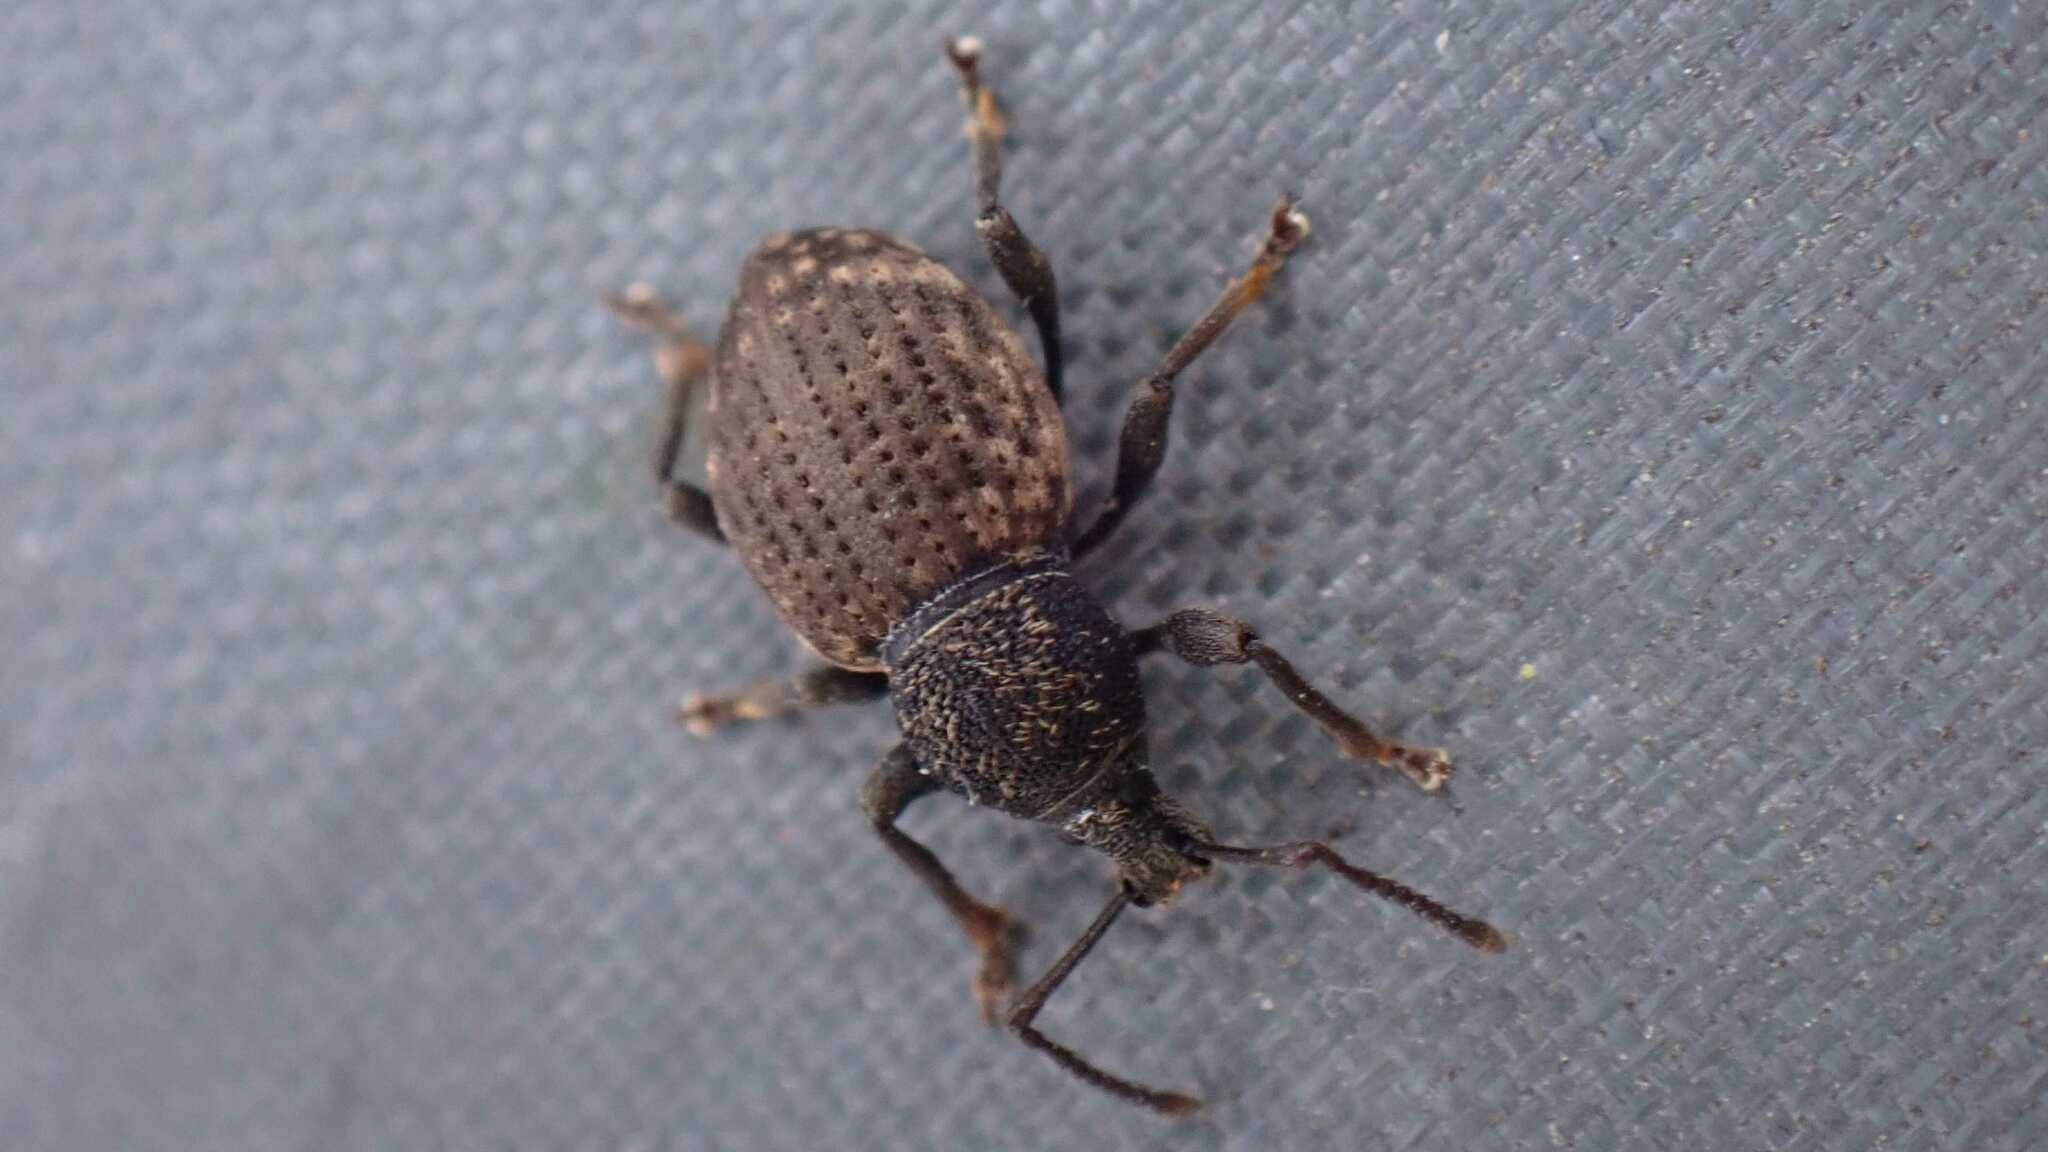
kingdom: Animalia
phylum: Arthropoda
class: Insecta
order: Coleoptera
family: Curculionidae
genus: Otiorhynchus
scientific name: Otiorhynchus raucus
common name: Weevil
